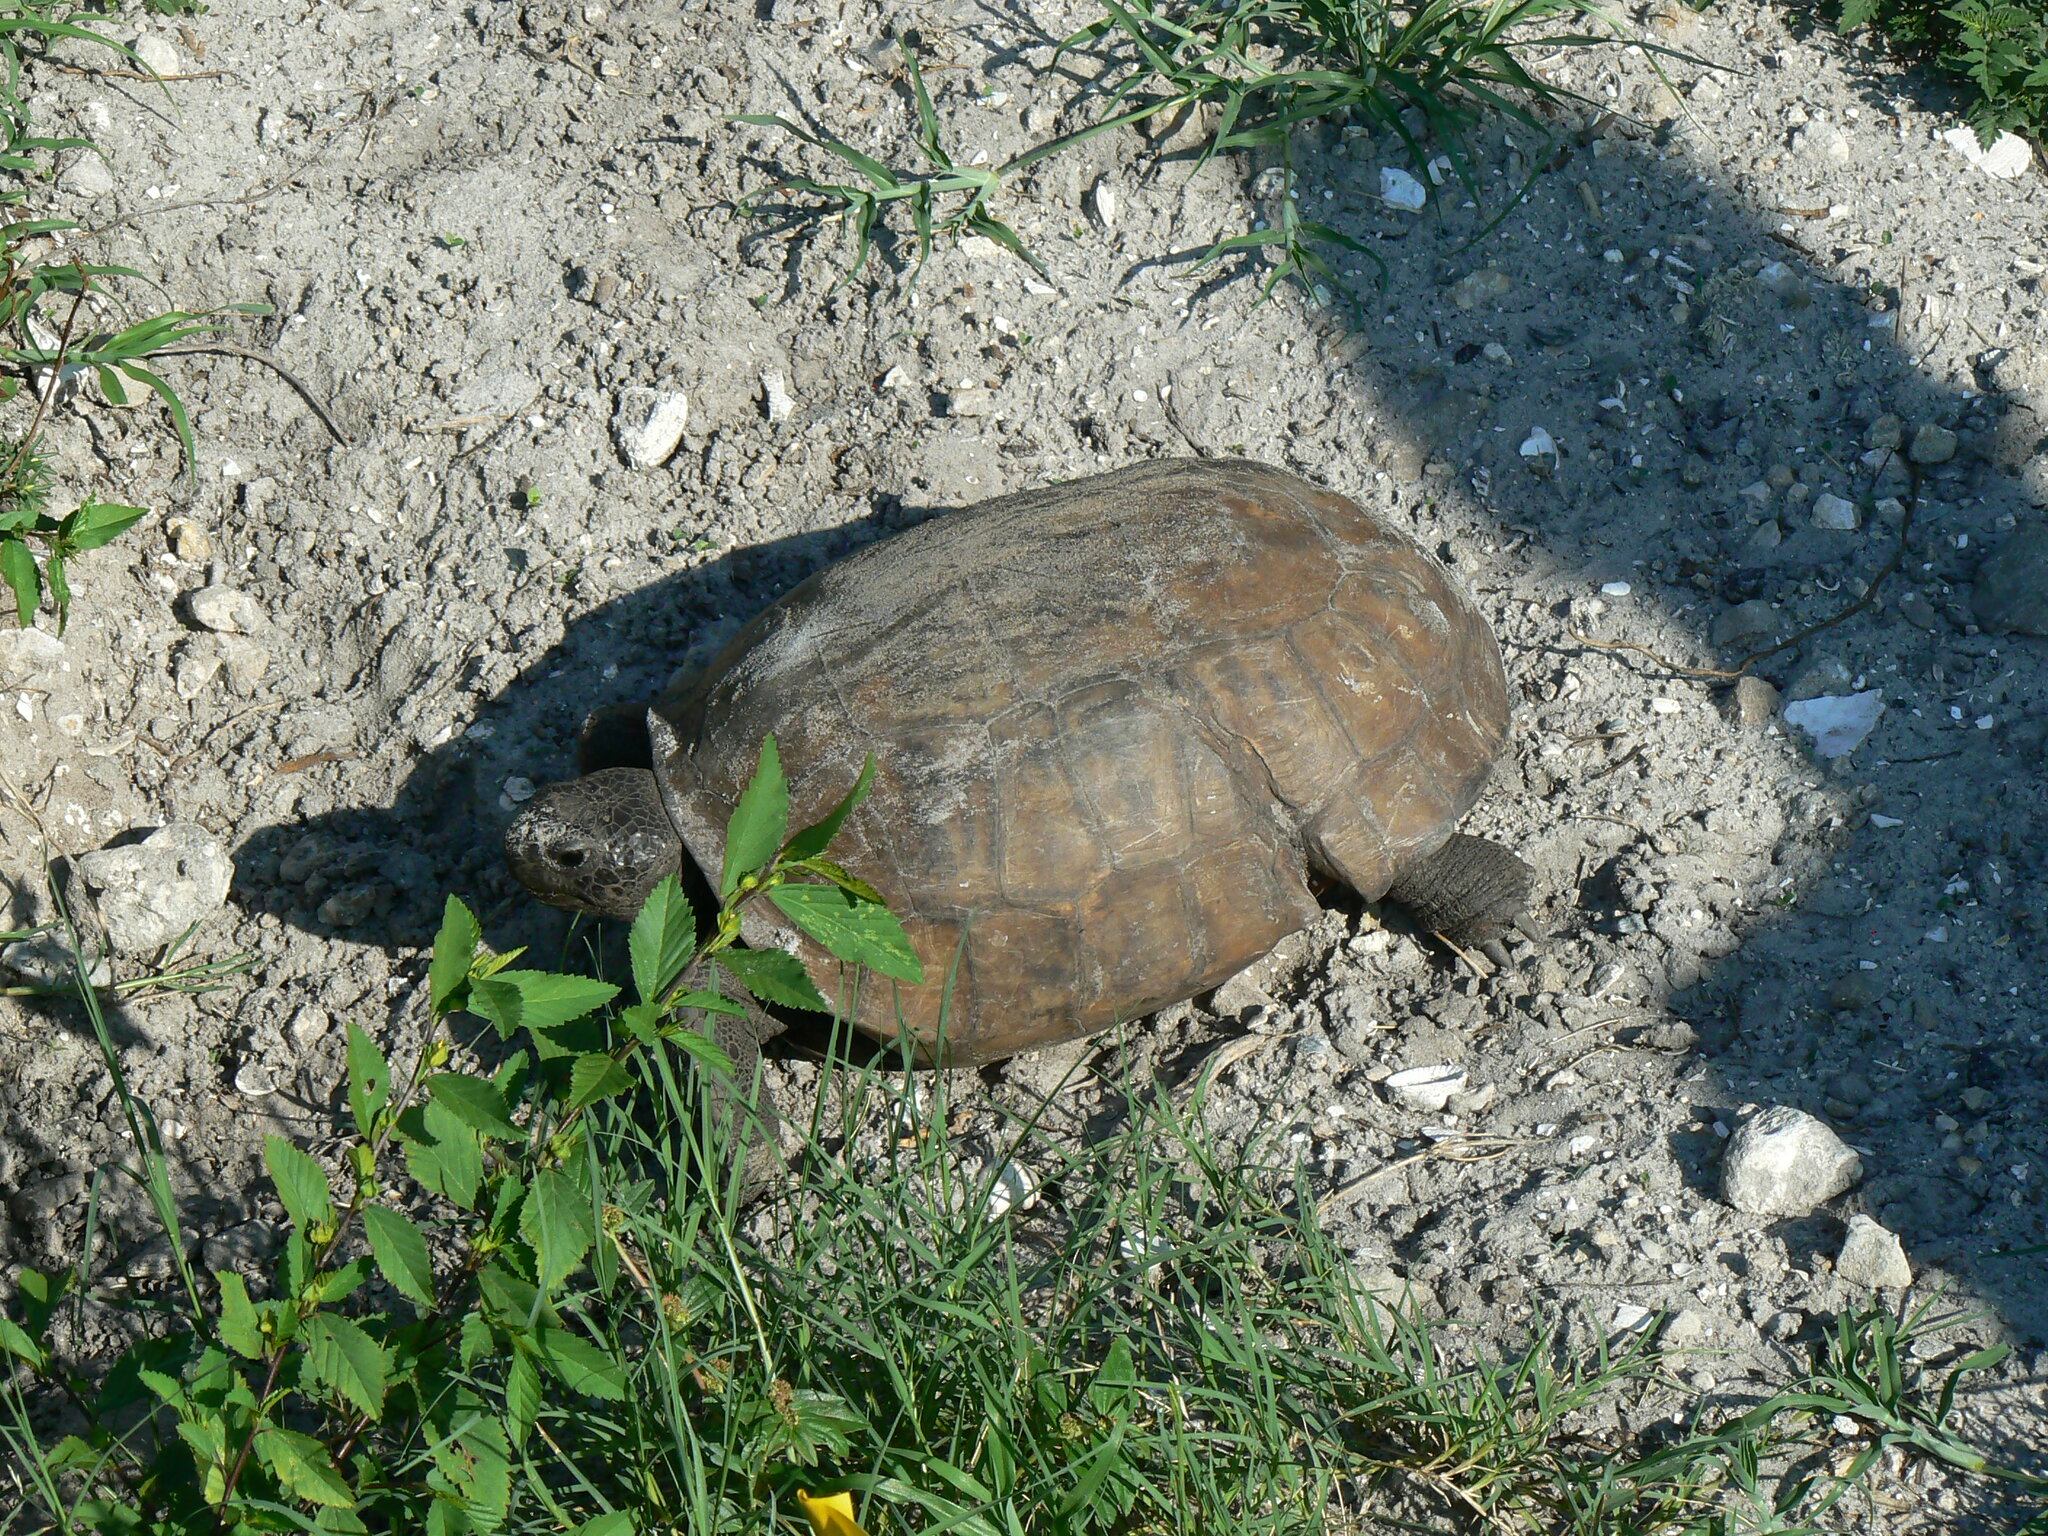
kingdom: Animalia
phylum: Chordata
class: Testudines
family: Testudinidae
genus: Gopherus
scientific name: Gopherus polyphemus
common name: Florida gopher tortoise
